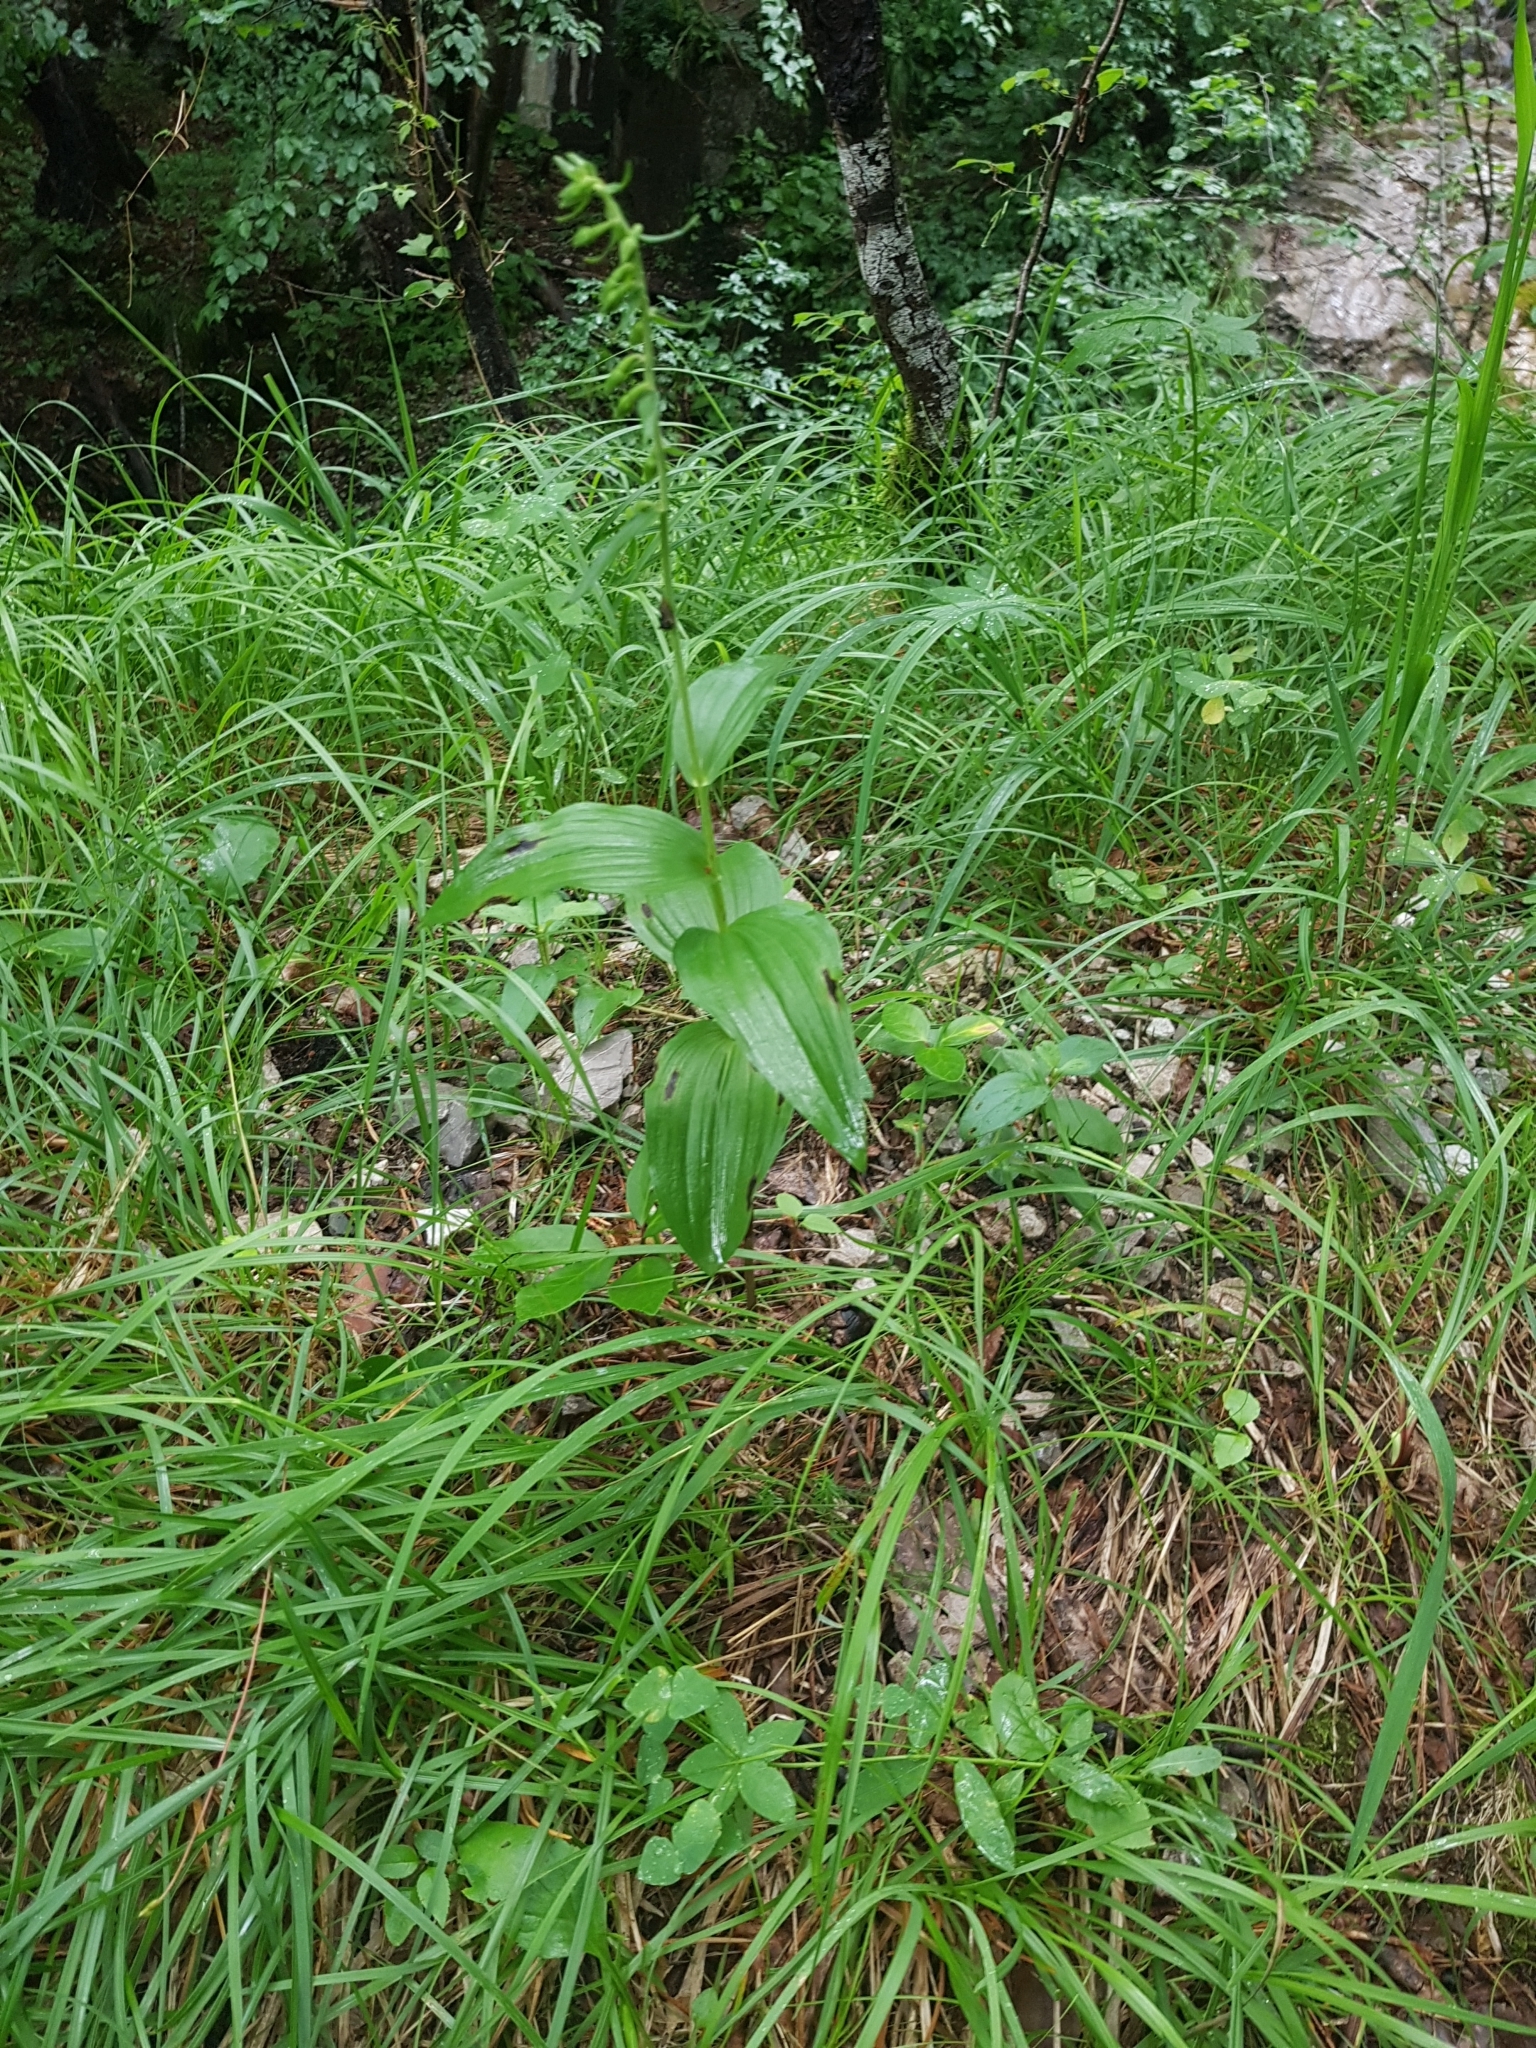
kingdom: Plantae
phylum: Tracheophyta
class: Liliopsida
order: Asparagales
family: Orchidaceae
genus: Epipactis
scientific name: Epipactis helleborine
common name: Broad-leaved helleborine
